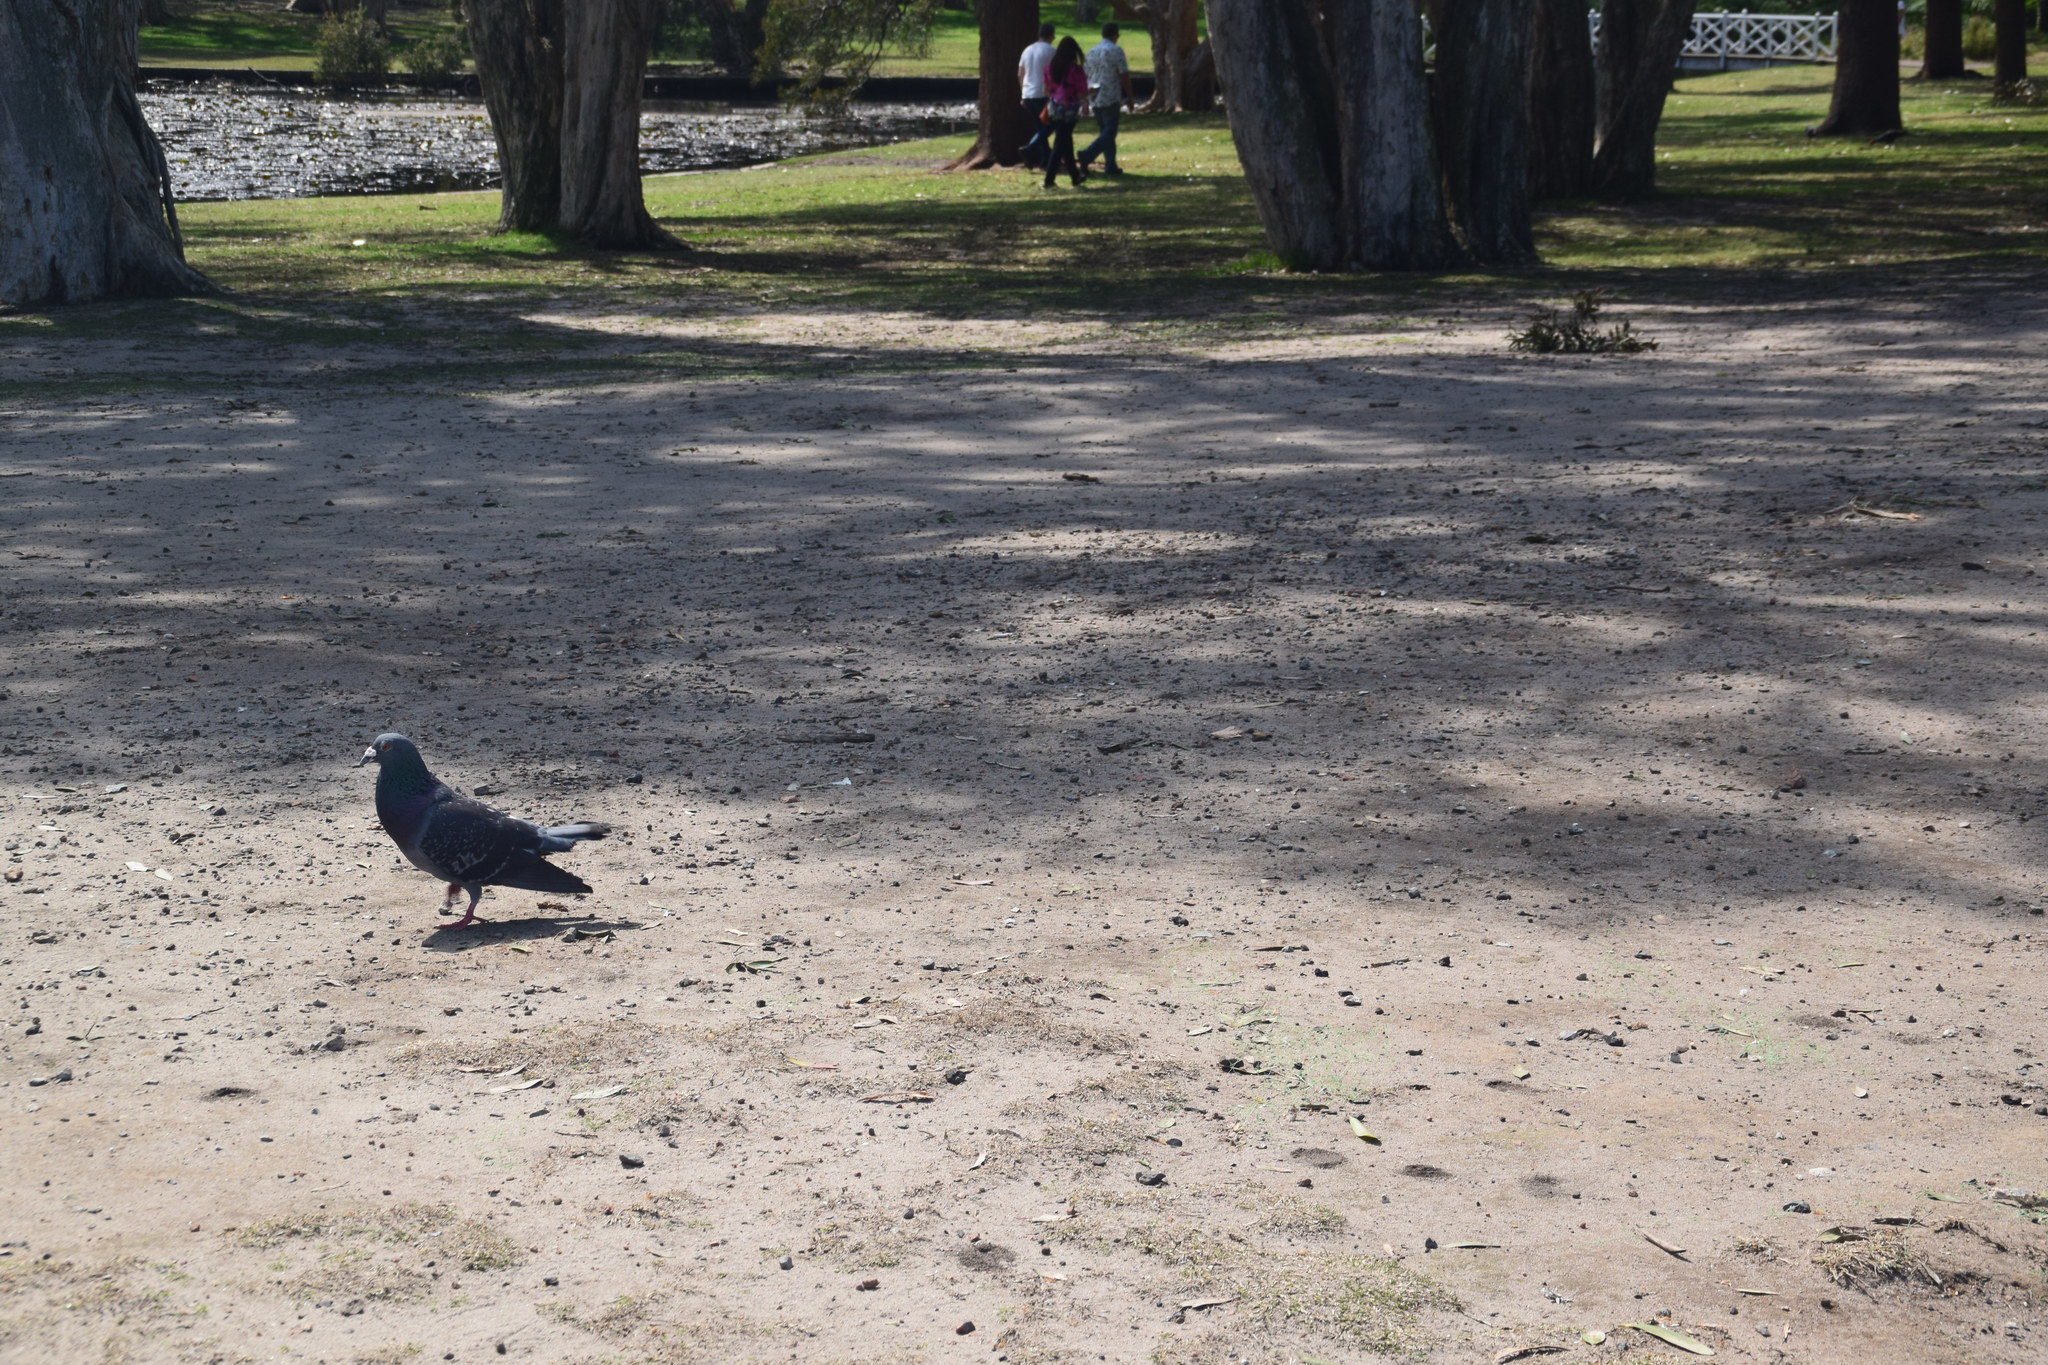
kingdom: Animalia
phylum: Chordata
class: Aves
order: Columbiformes
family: Columbidae
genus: Columba
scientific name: Columba livia
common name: Rock pigeon
